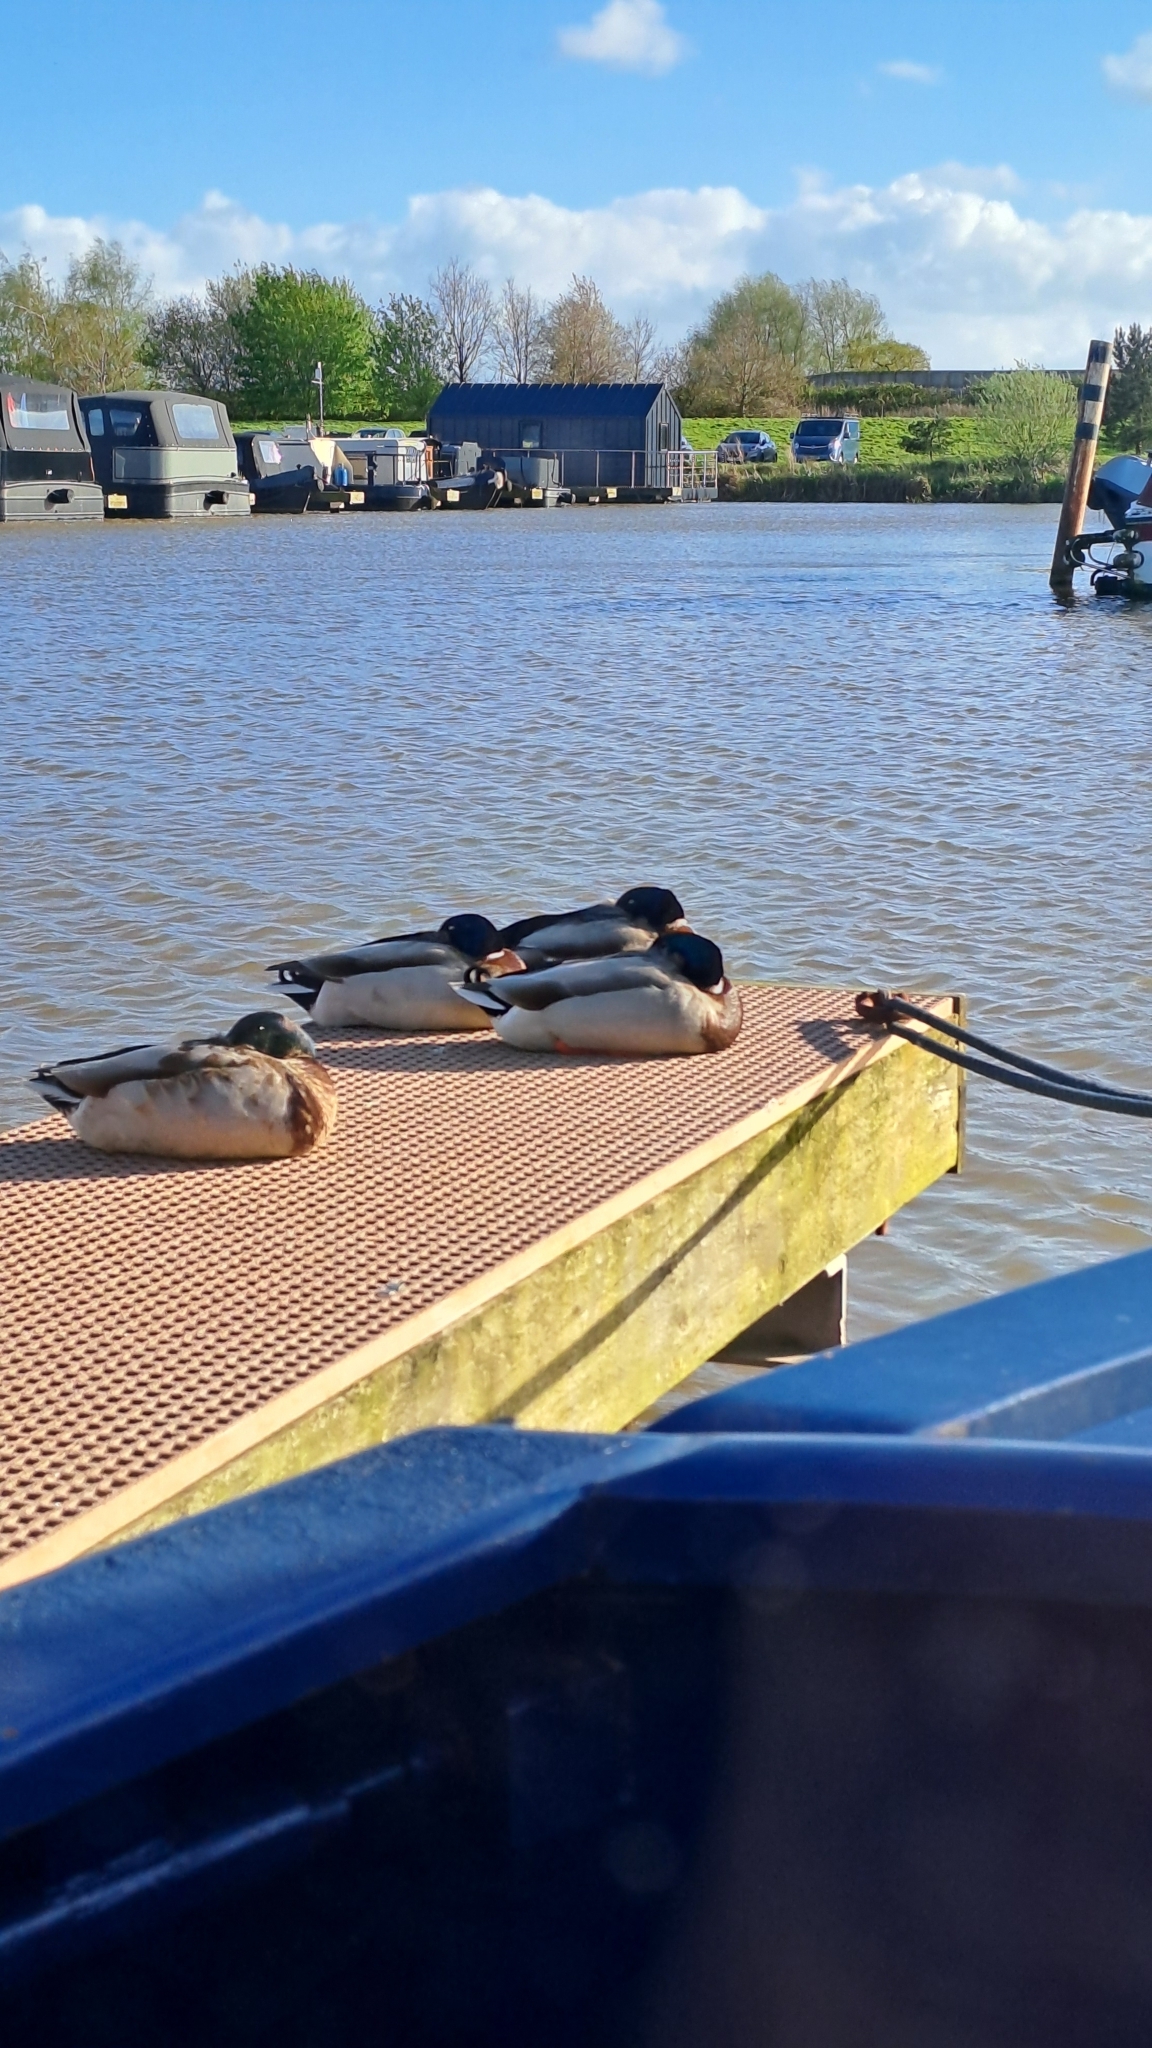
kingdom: Animalia
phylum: Chordata
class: Aves
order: Anseriformes
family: Anatidae
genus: Anas
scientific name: Anas platyrhynchos
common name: Mallard
